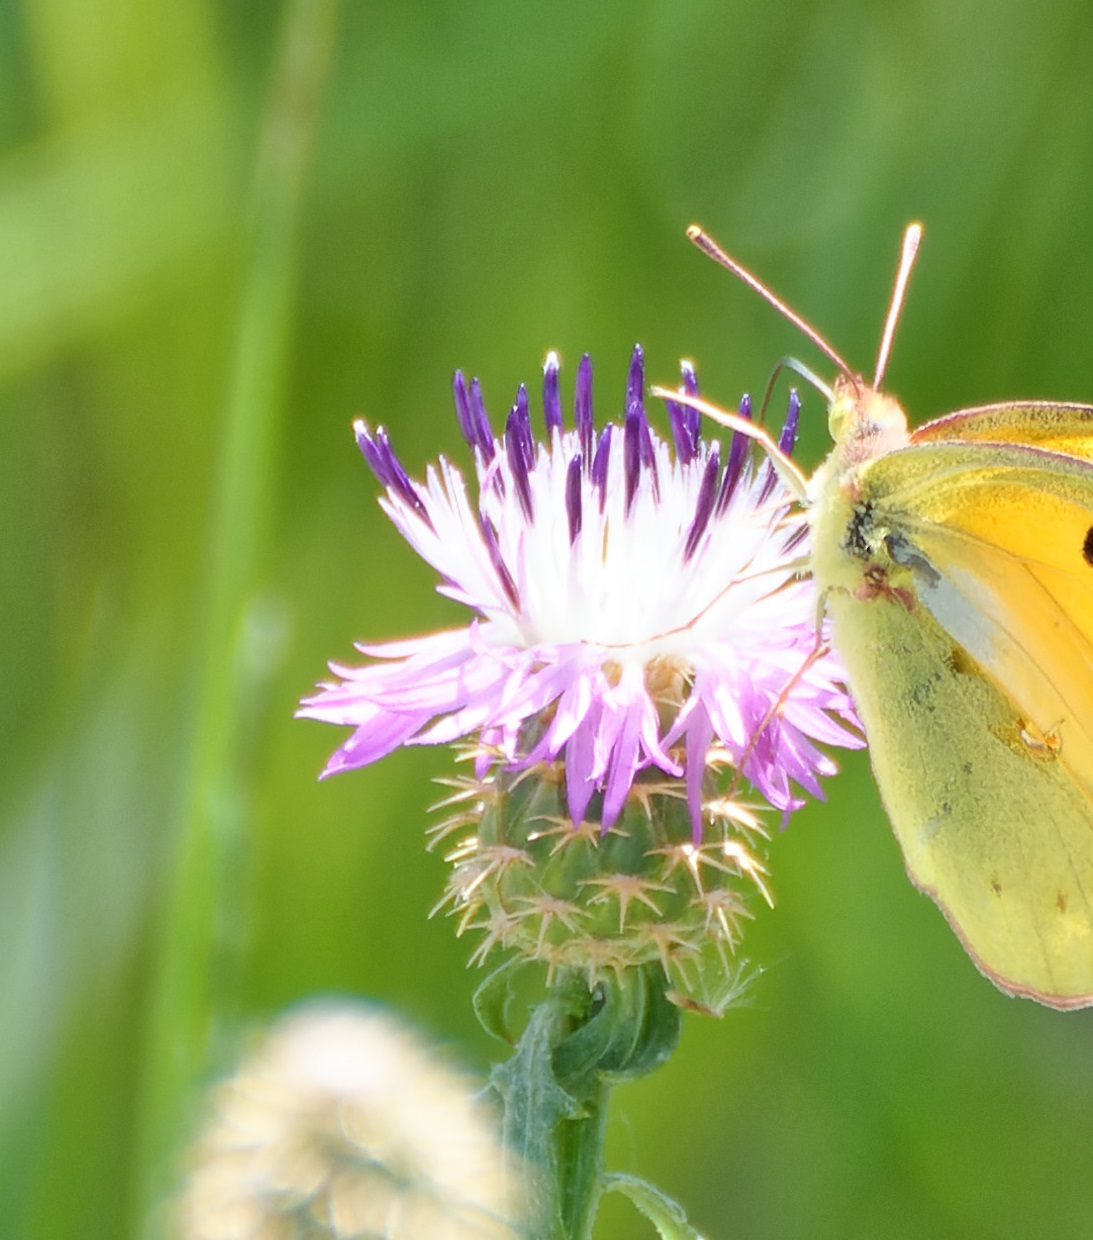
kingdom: Plantae
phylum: Tracheophyta
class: Magnoliopsida
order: Asterales
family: Asteraceae
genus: Centaurea
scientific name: Centaurea aspera
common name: Rough star-thistle
